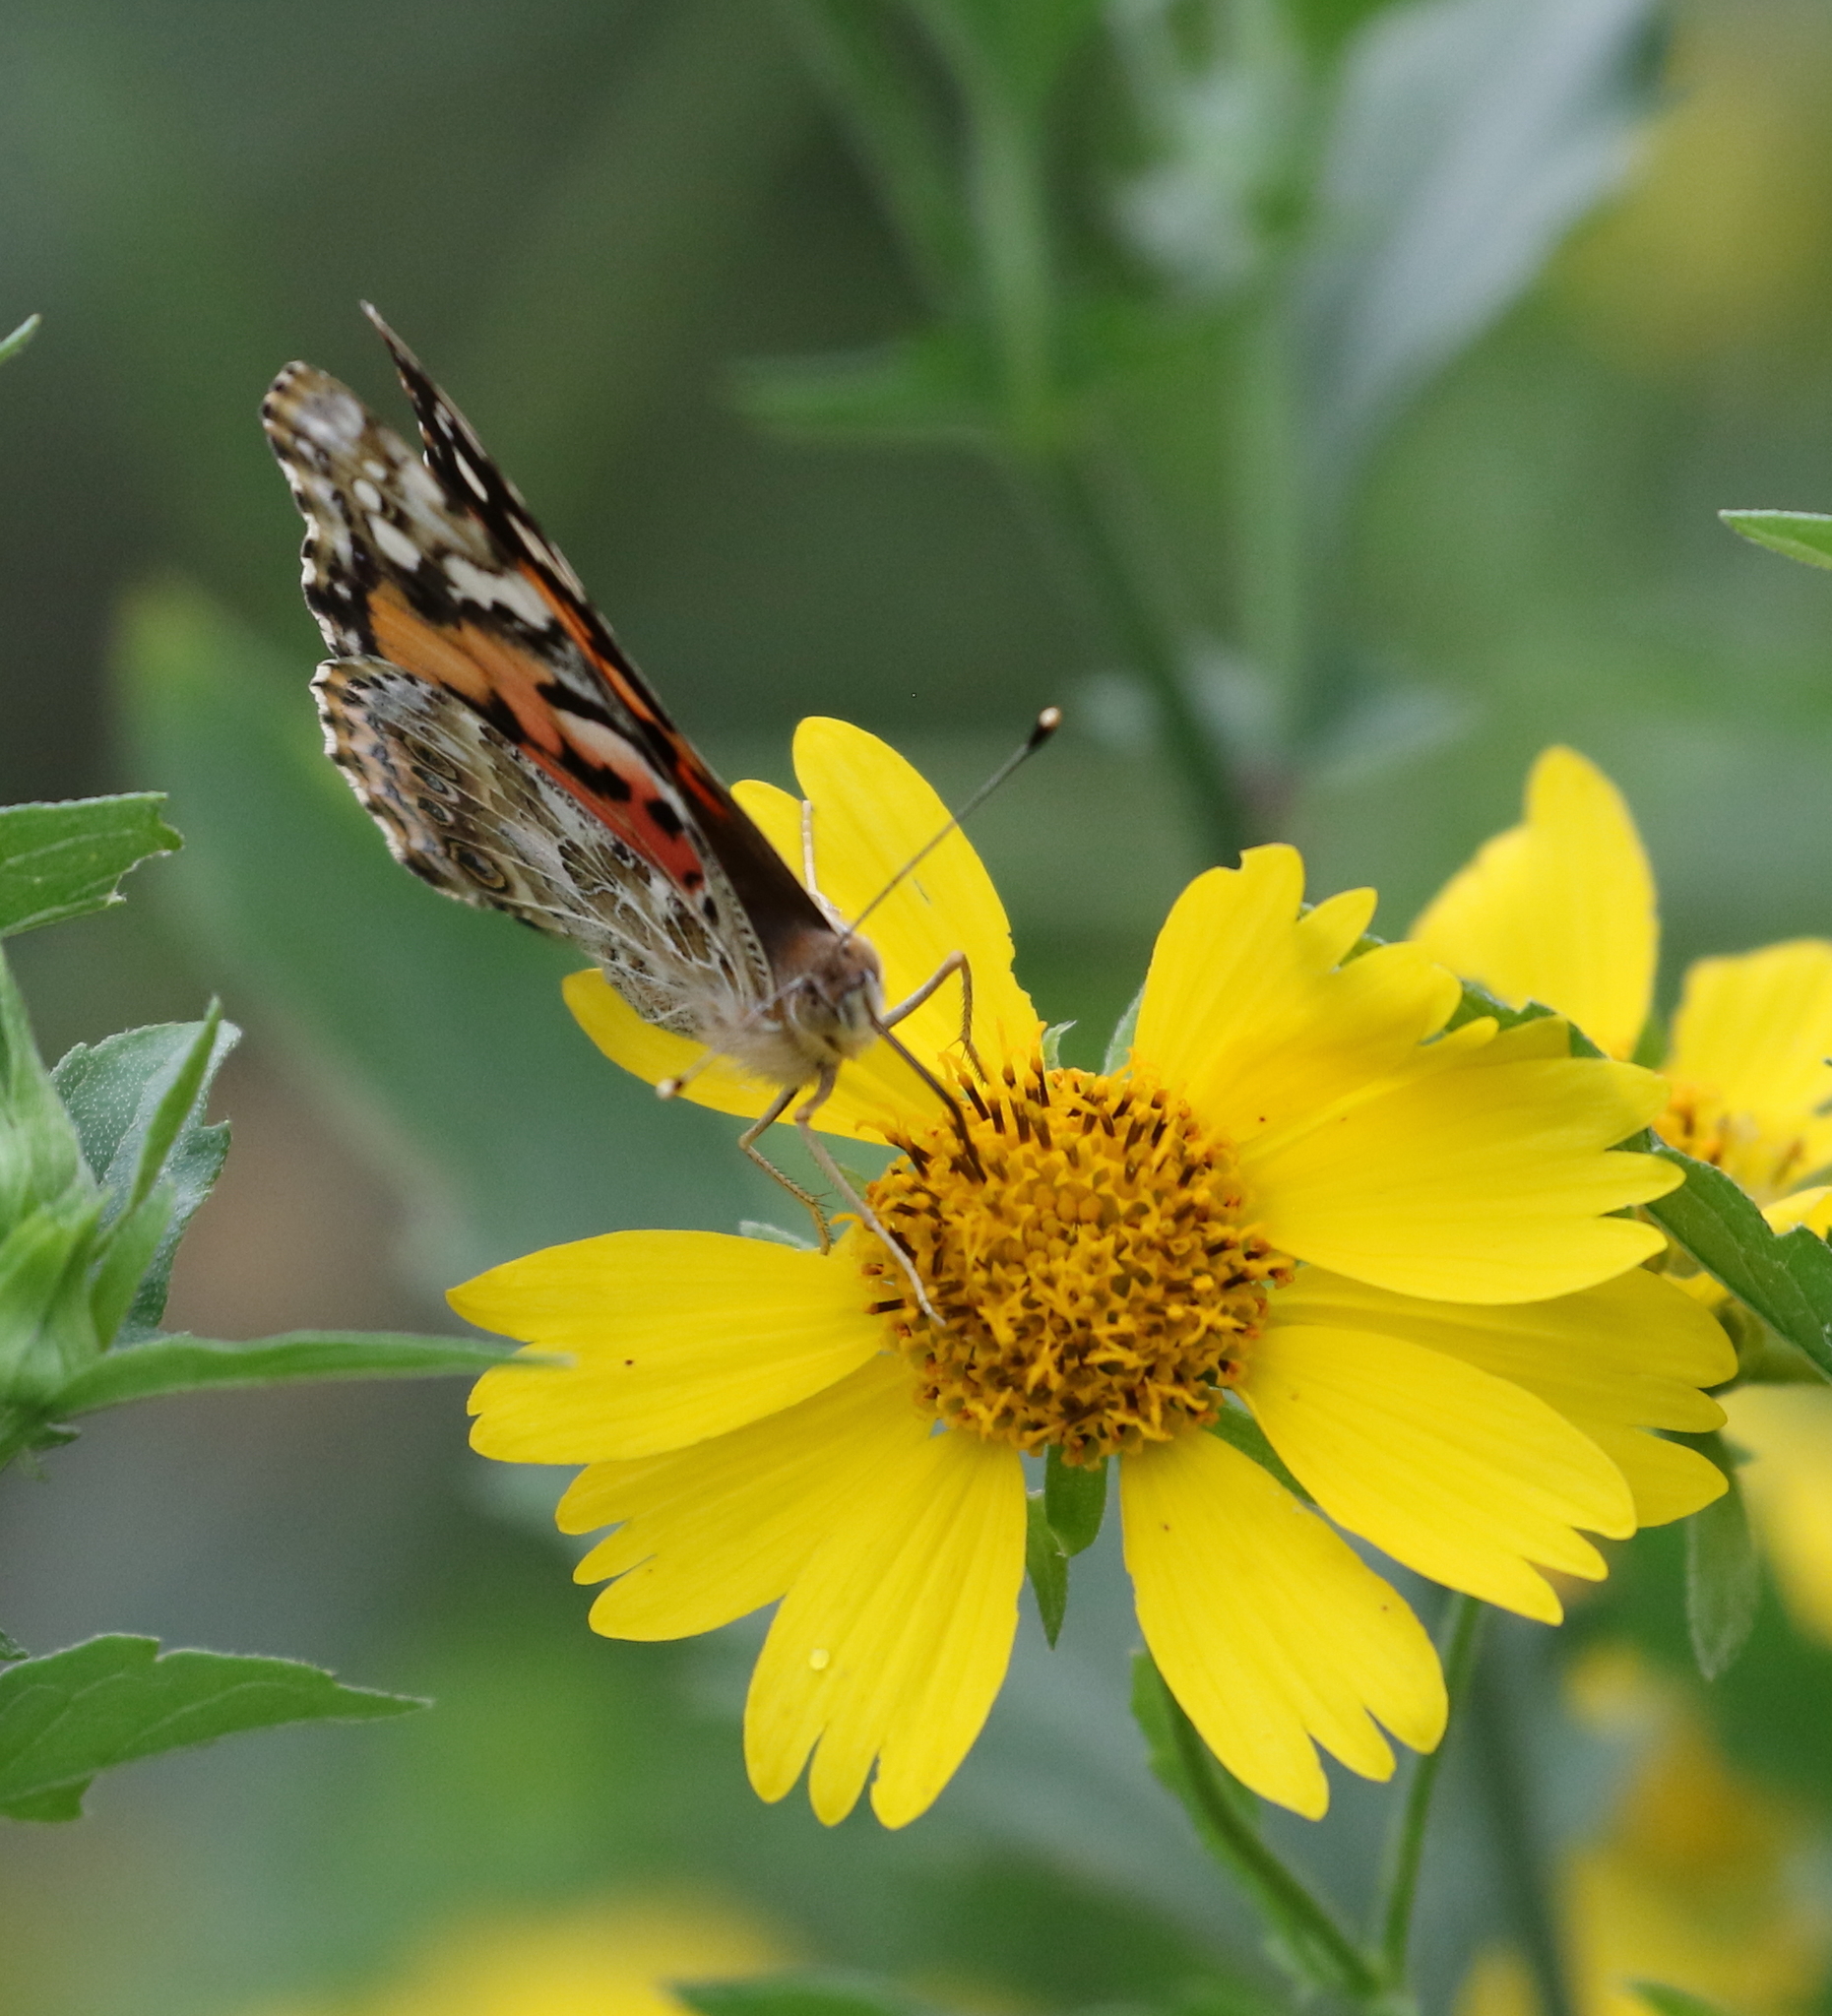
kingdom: Animalia
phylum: Arthropoda
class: Insecta
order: Lepidoptera
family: Nymphalidae
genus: Vanessa
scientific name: Vanessa cardui
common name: Painted lady
